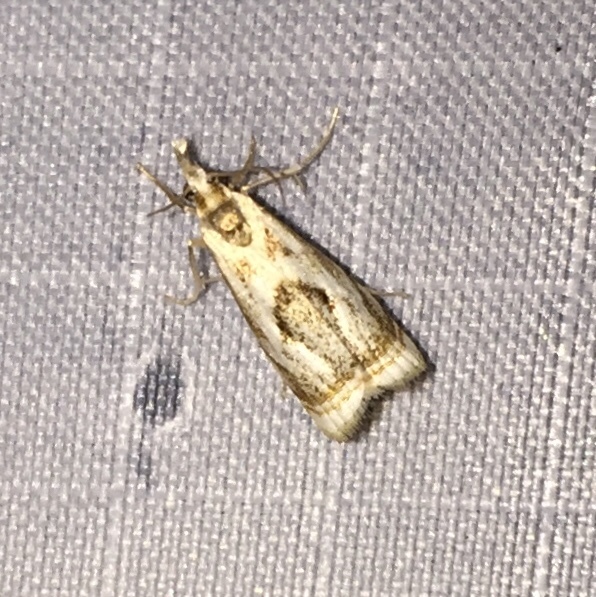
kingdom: Animalia
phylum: Arthropoda
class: Insecta
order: Lepidoptera
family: Crambidae
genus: Microcrambus
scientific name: Microcrambus elegans
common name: Elegant grass-veneer
